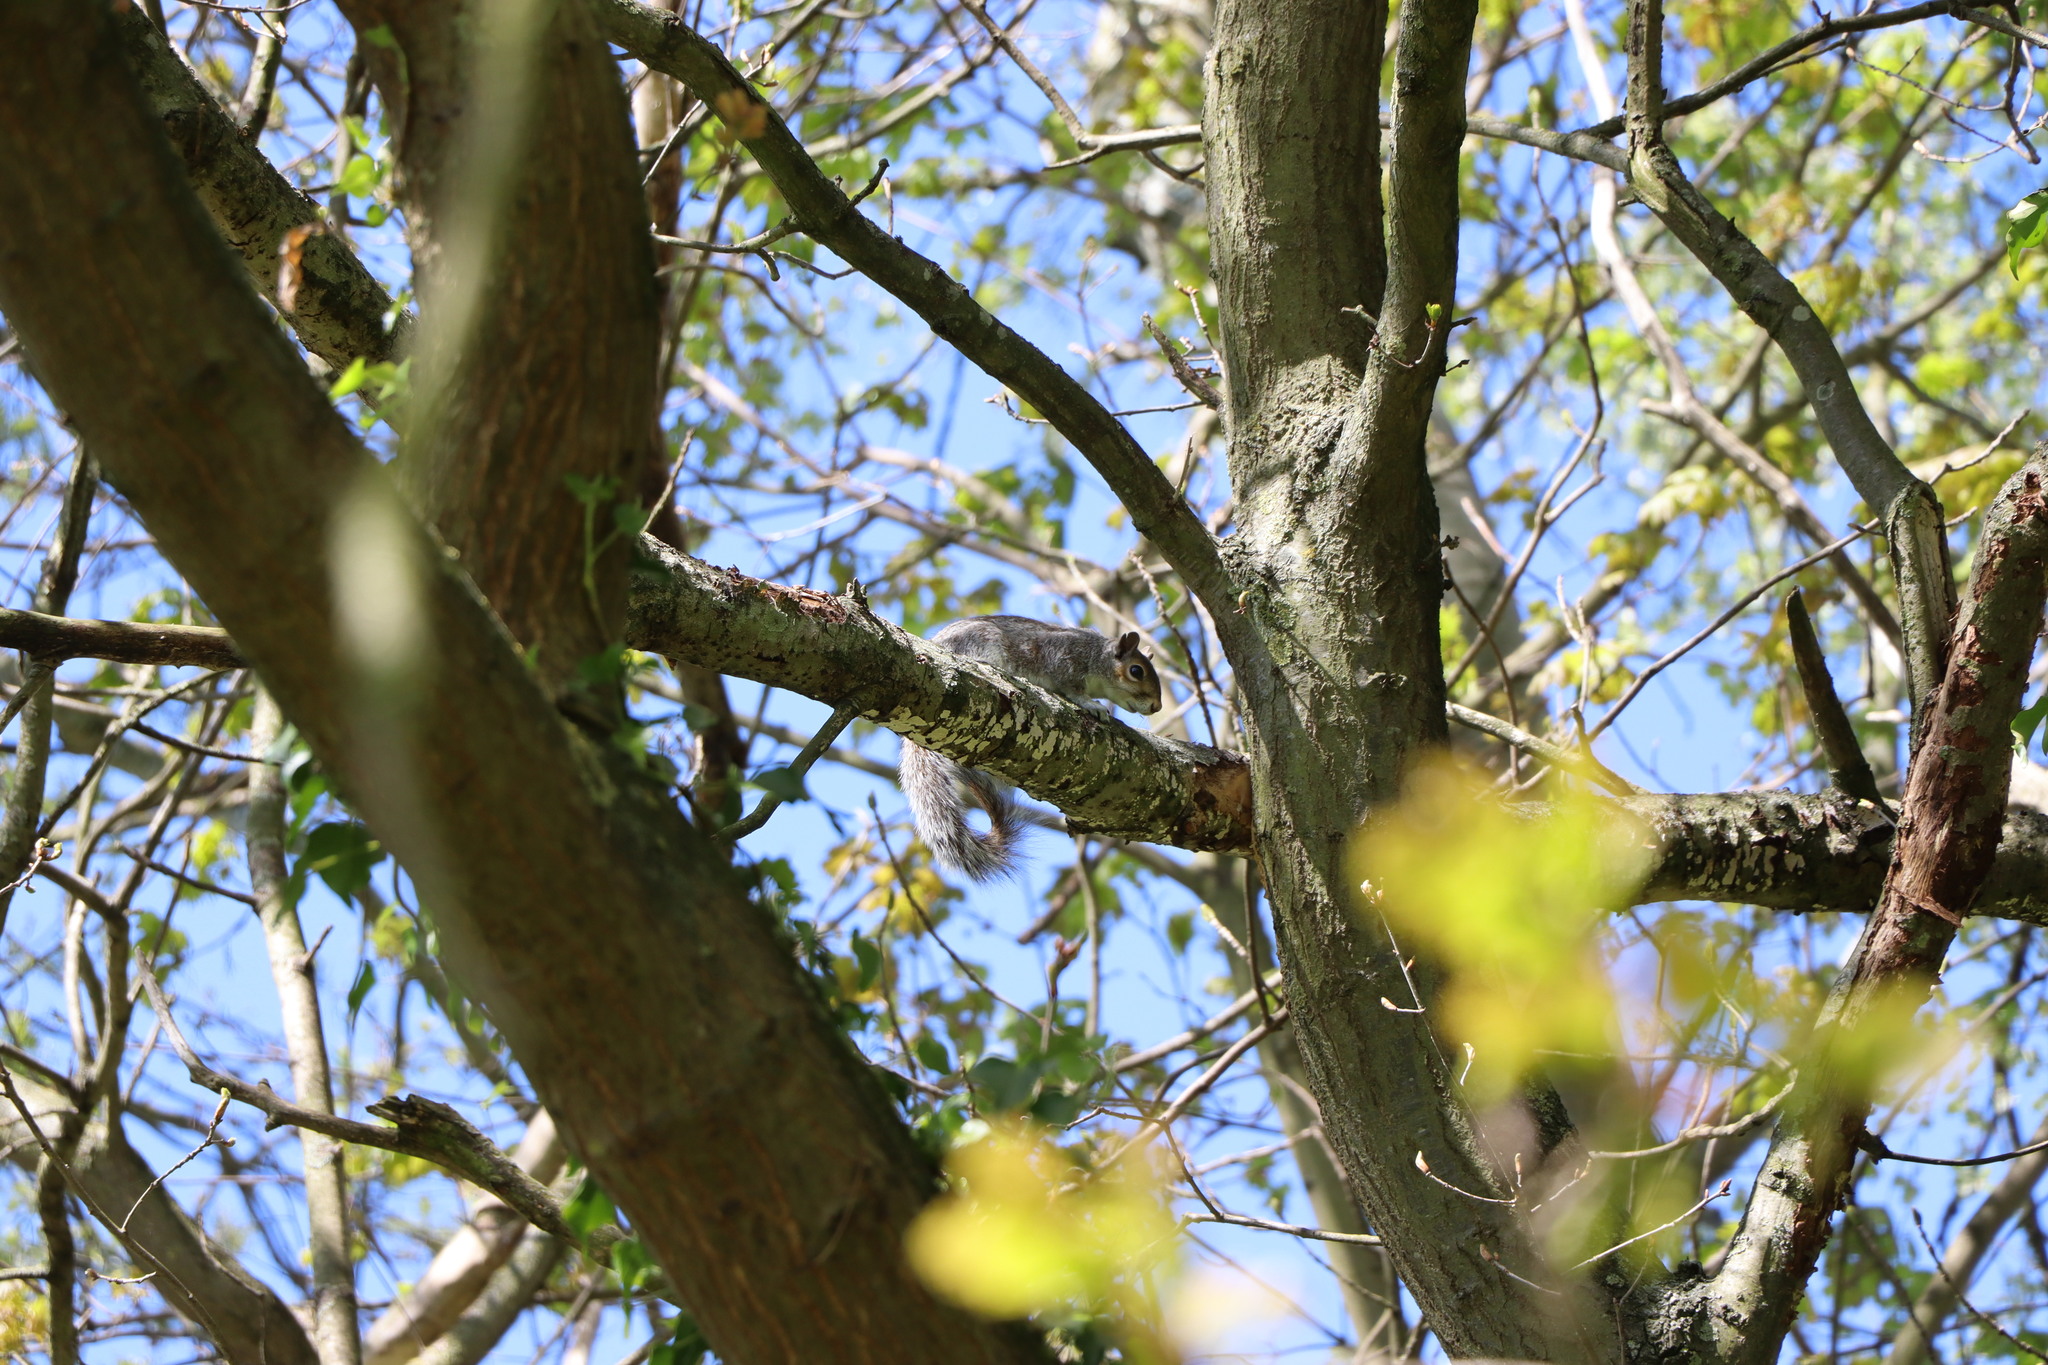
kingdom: Animalia
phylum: Chordata
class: Mammalia
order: Rodentia
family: Sciuridae
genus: Sciurus
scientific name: Sciurus carolinensis
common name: Eastern gray squirrel
